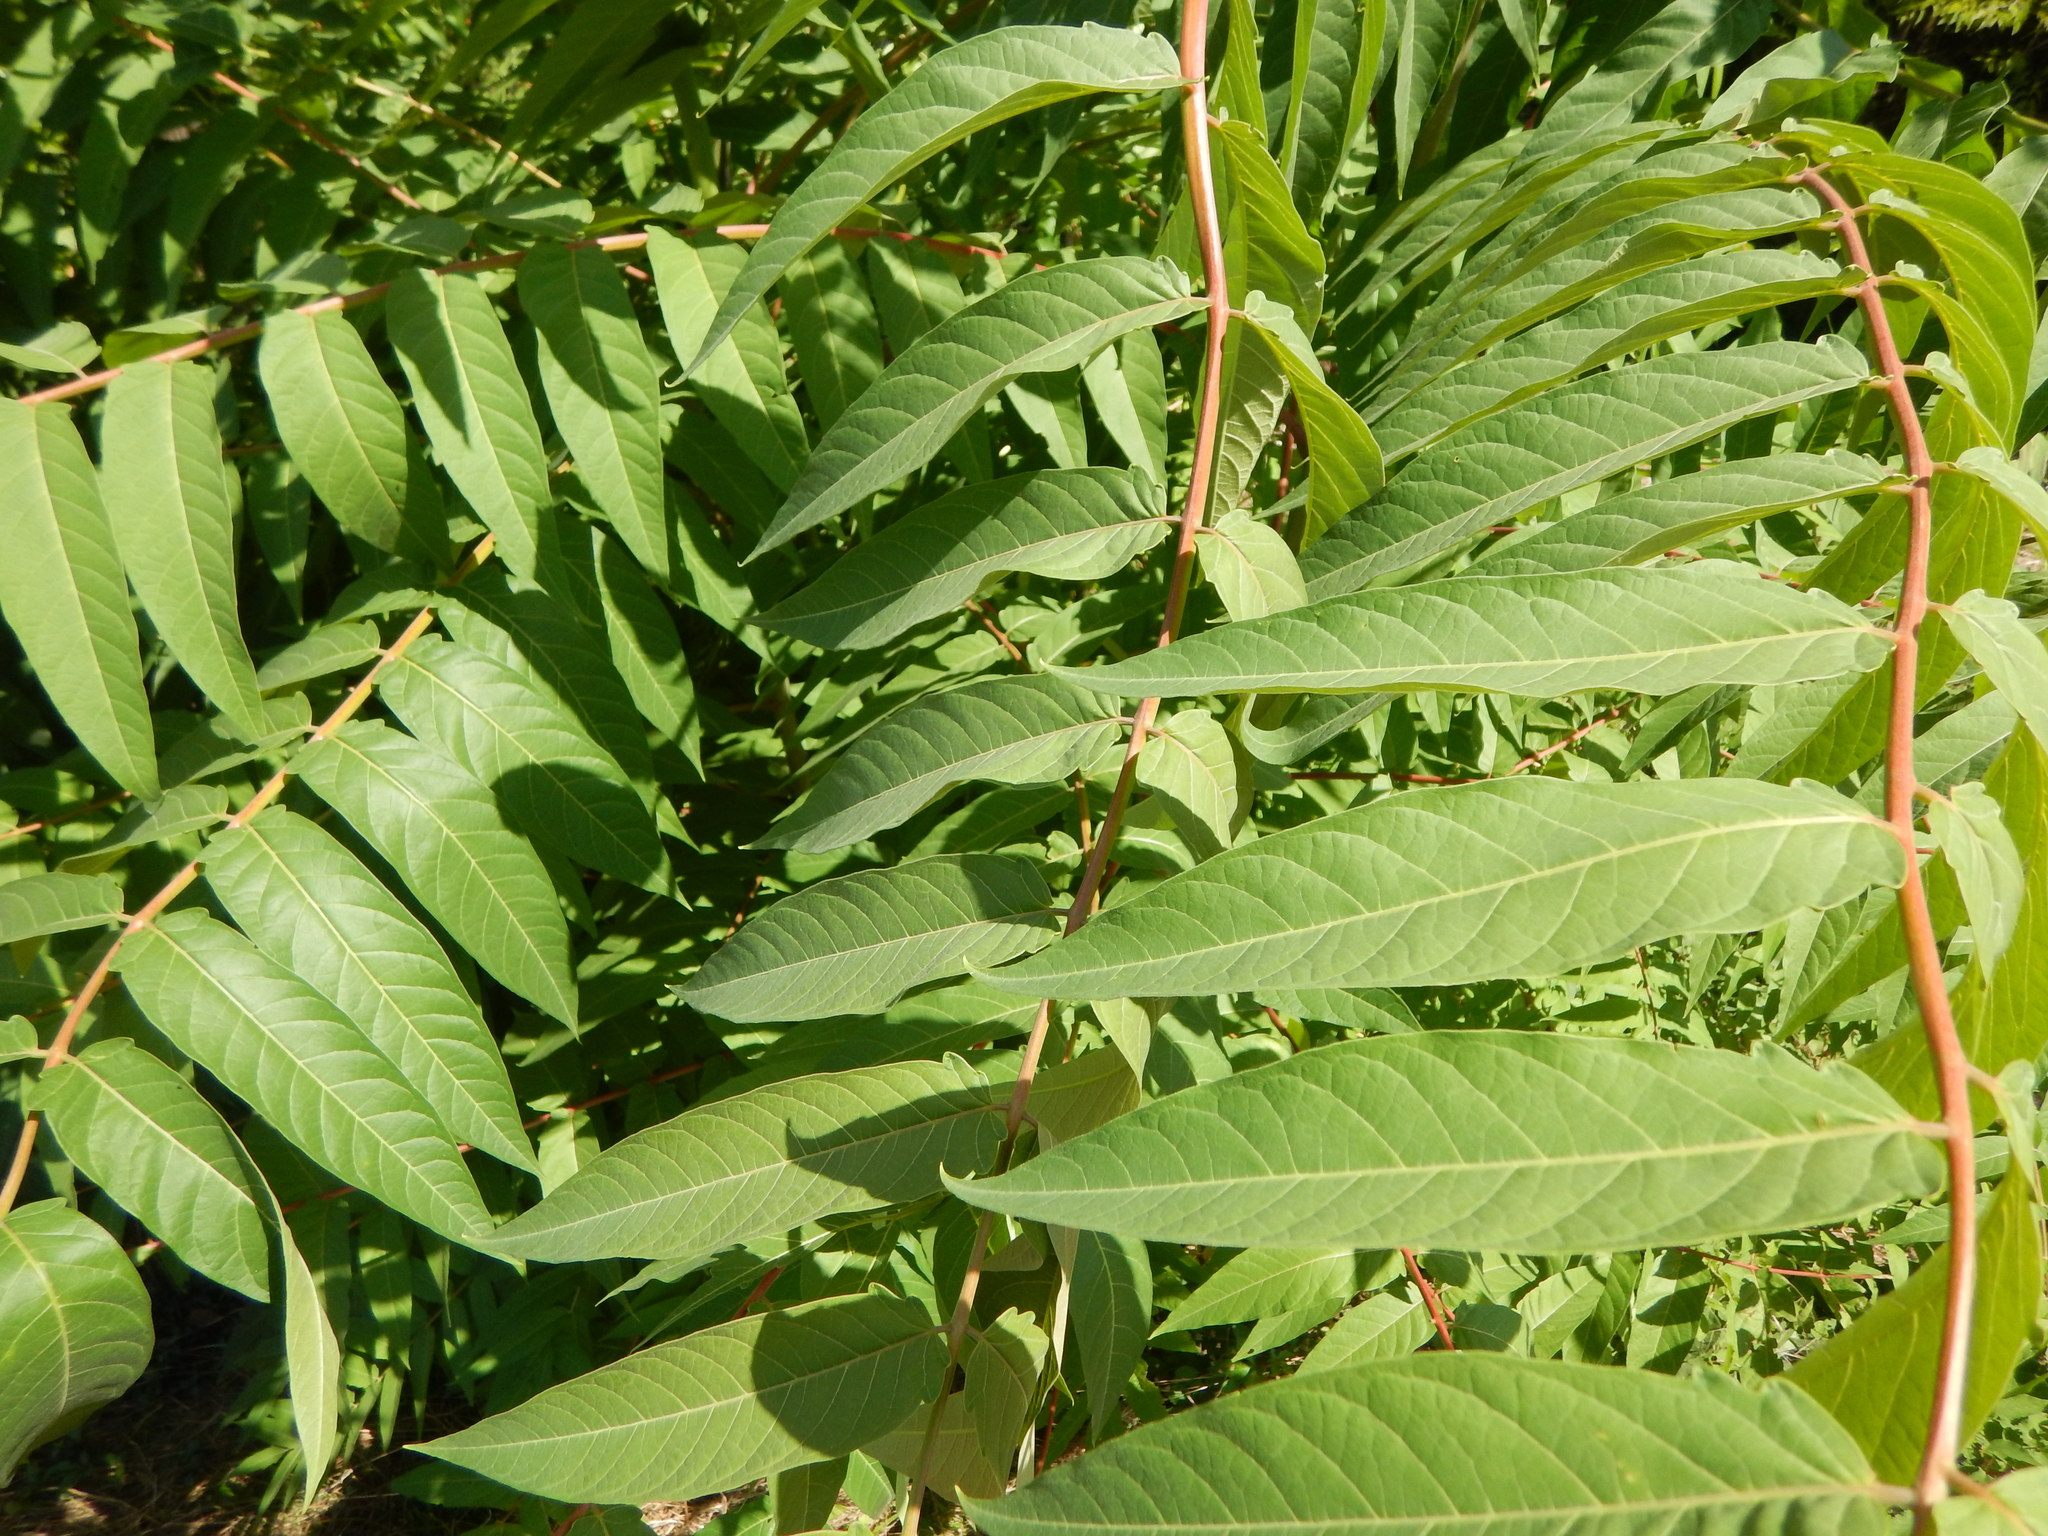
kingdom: Plantae
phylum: Tracheophyta
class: Magnoliopsida
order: Sapindales
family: Simaroubaceae
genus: Ailanthus
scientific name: Ailanthus altissima
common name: Tree-of-heaven
